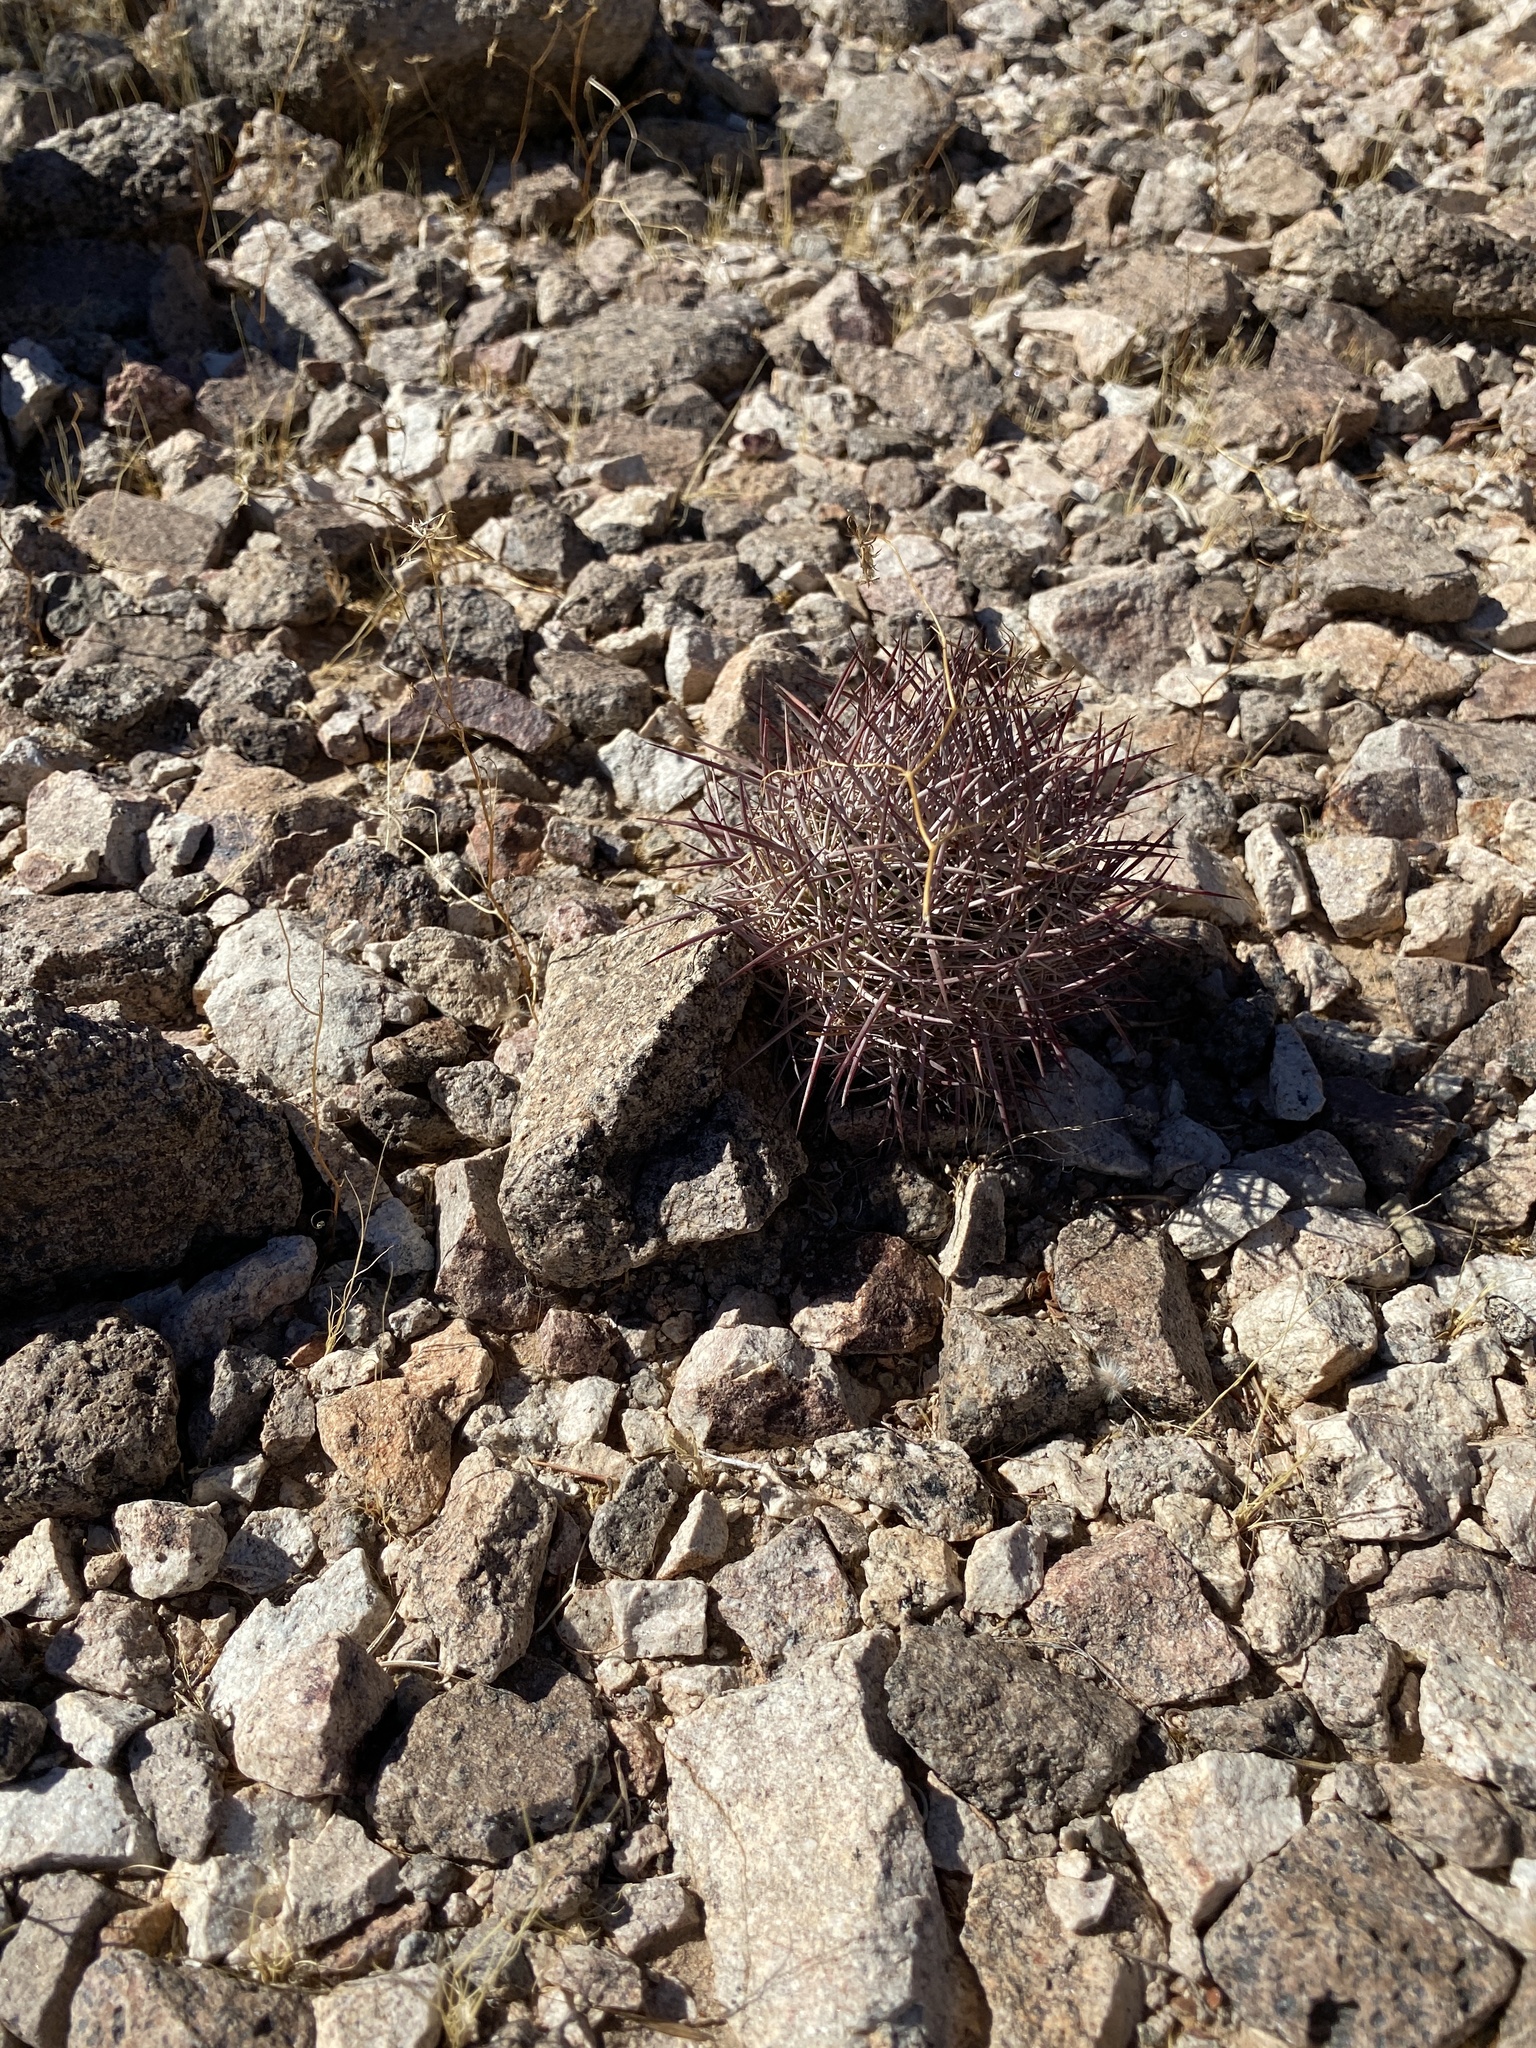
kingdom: Plantae
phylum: Tracheophyta
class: Magnoliopsida
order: Caryophyllales
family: Cactaceae
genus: Sclerocactus
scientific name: Sclerocactus johnsonii
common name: Eight-spine fishhook cactus
